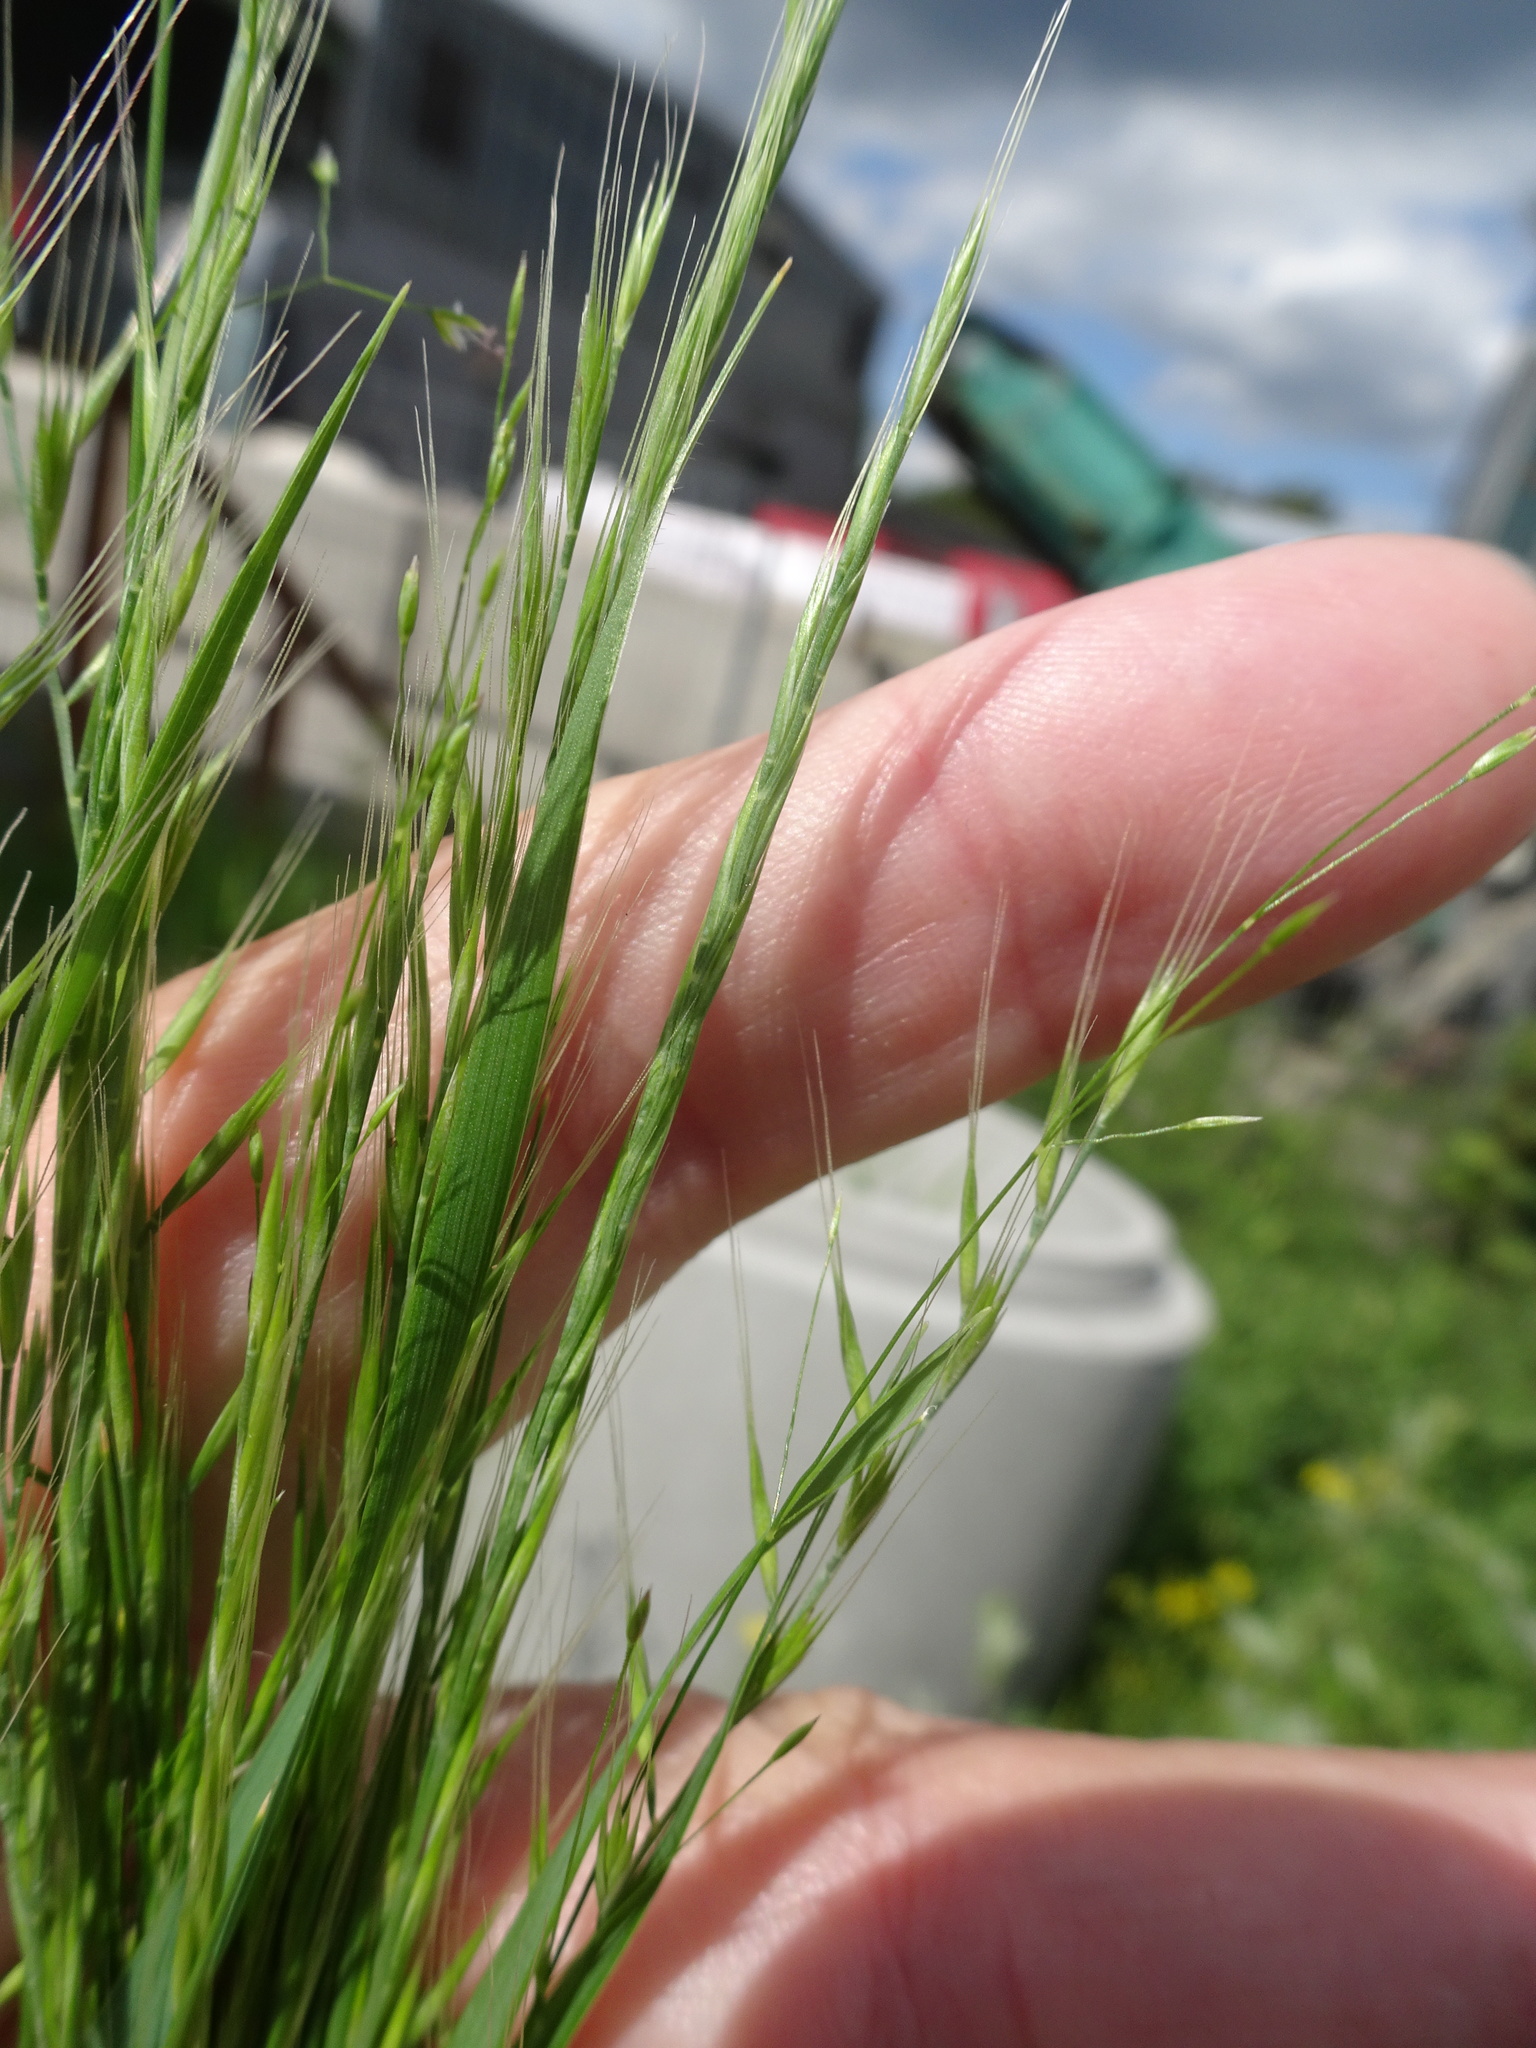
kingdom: Plantae
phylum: Tracheophyta
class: Liliopsida
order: Poales
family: Poaceae
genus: Festuca
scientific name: Festuca myuros
